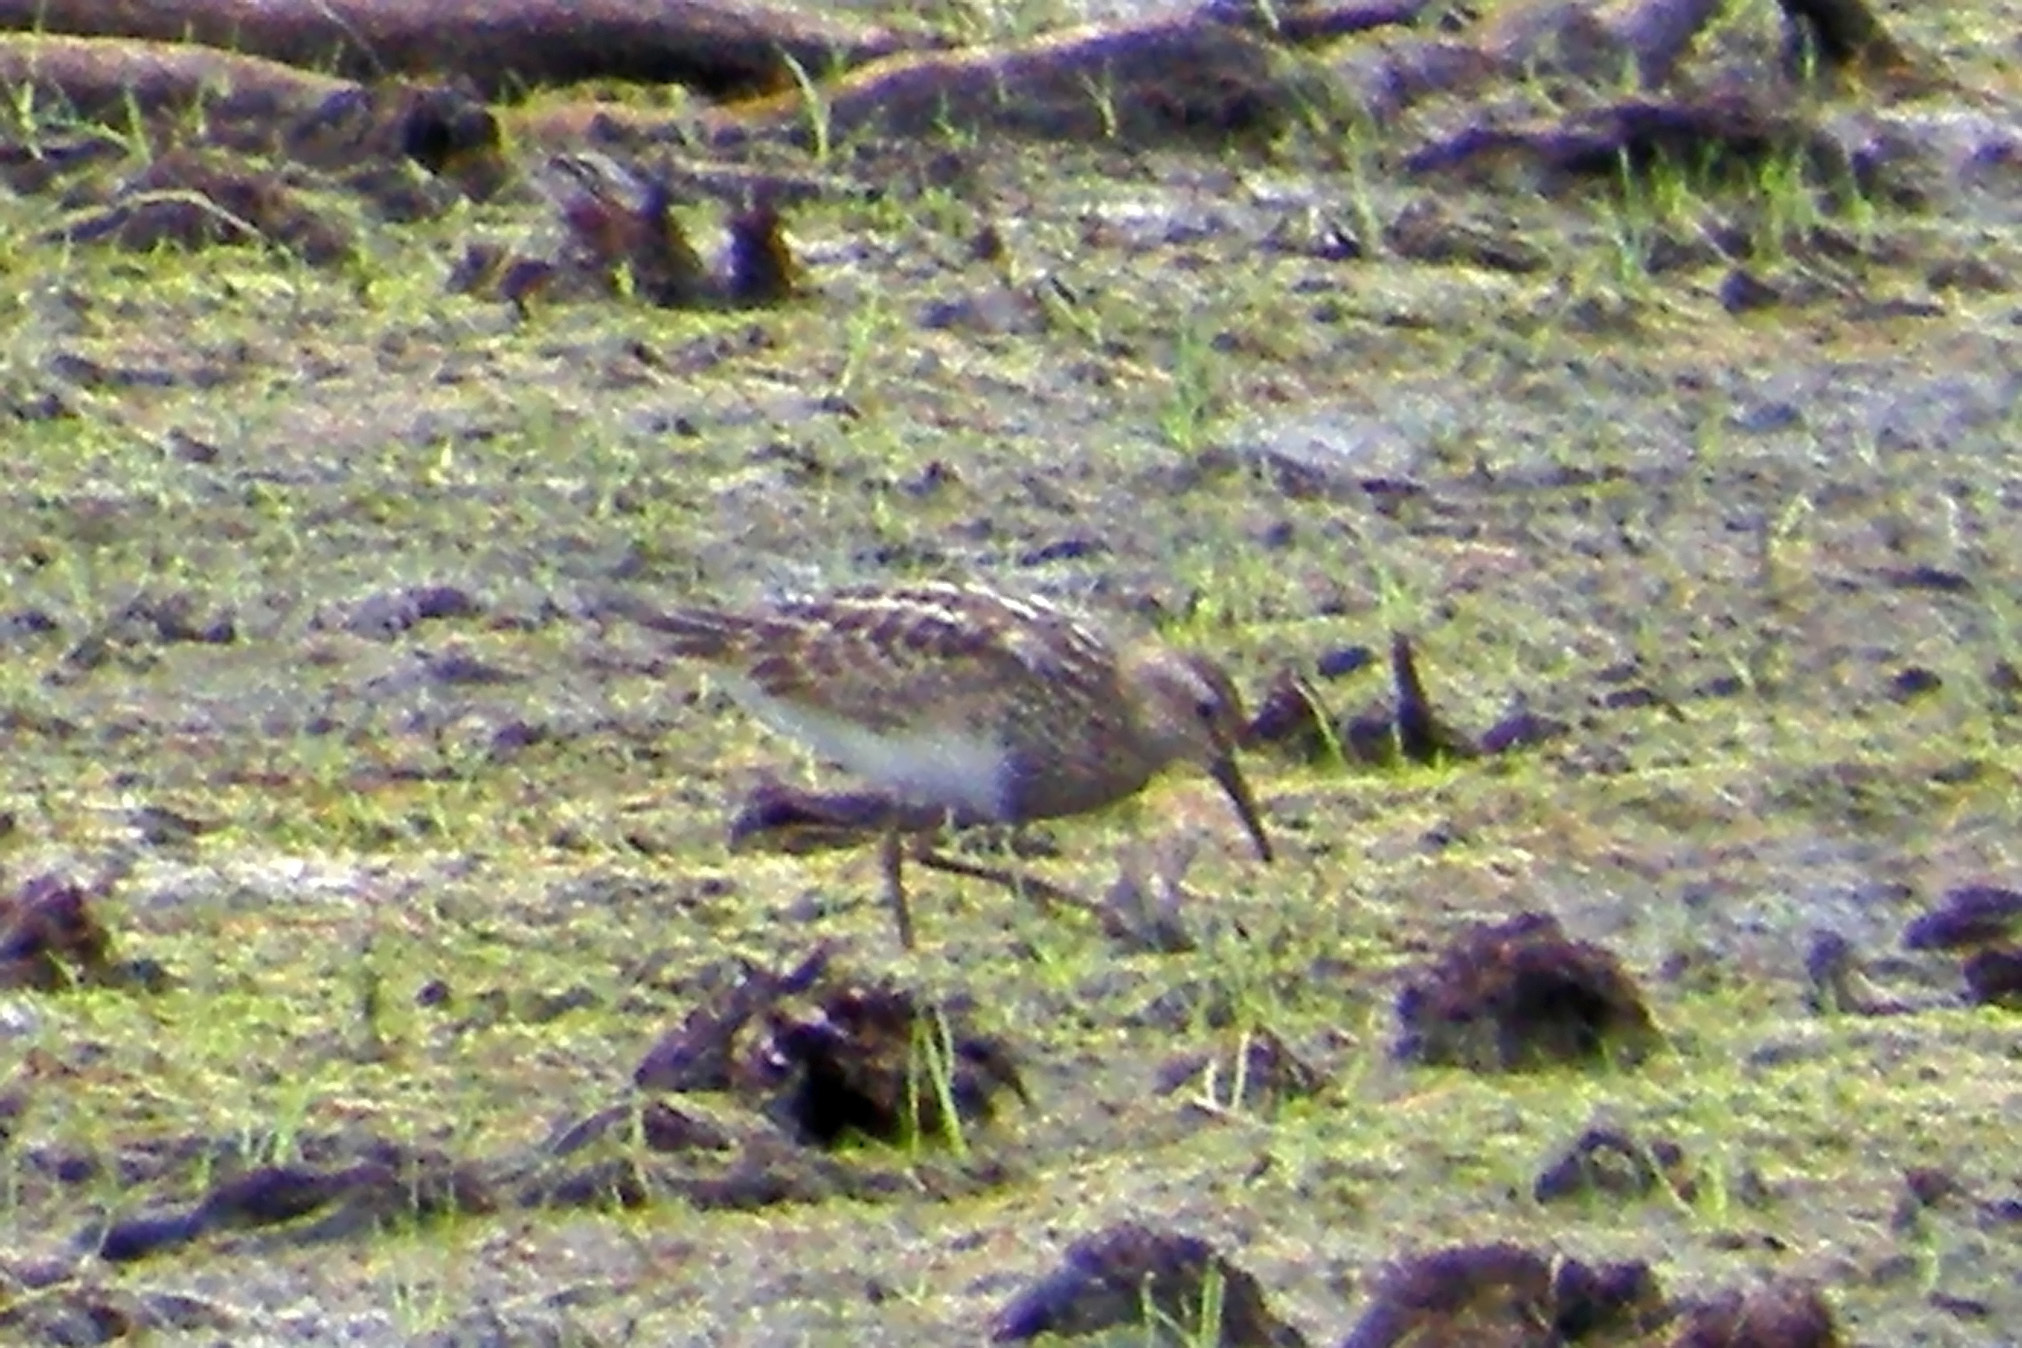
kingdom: Animalia
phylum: Chordata
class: Aves
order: Charadriiformes
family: Scolopacidae
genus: Calidris
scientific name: Calidris melanotos
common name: Pectoral sandpiper
